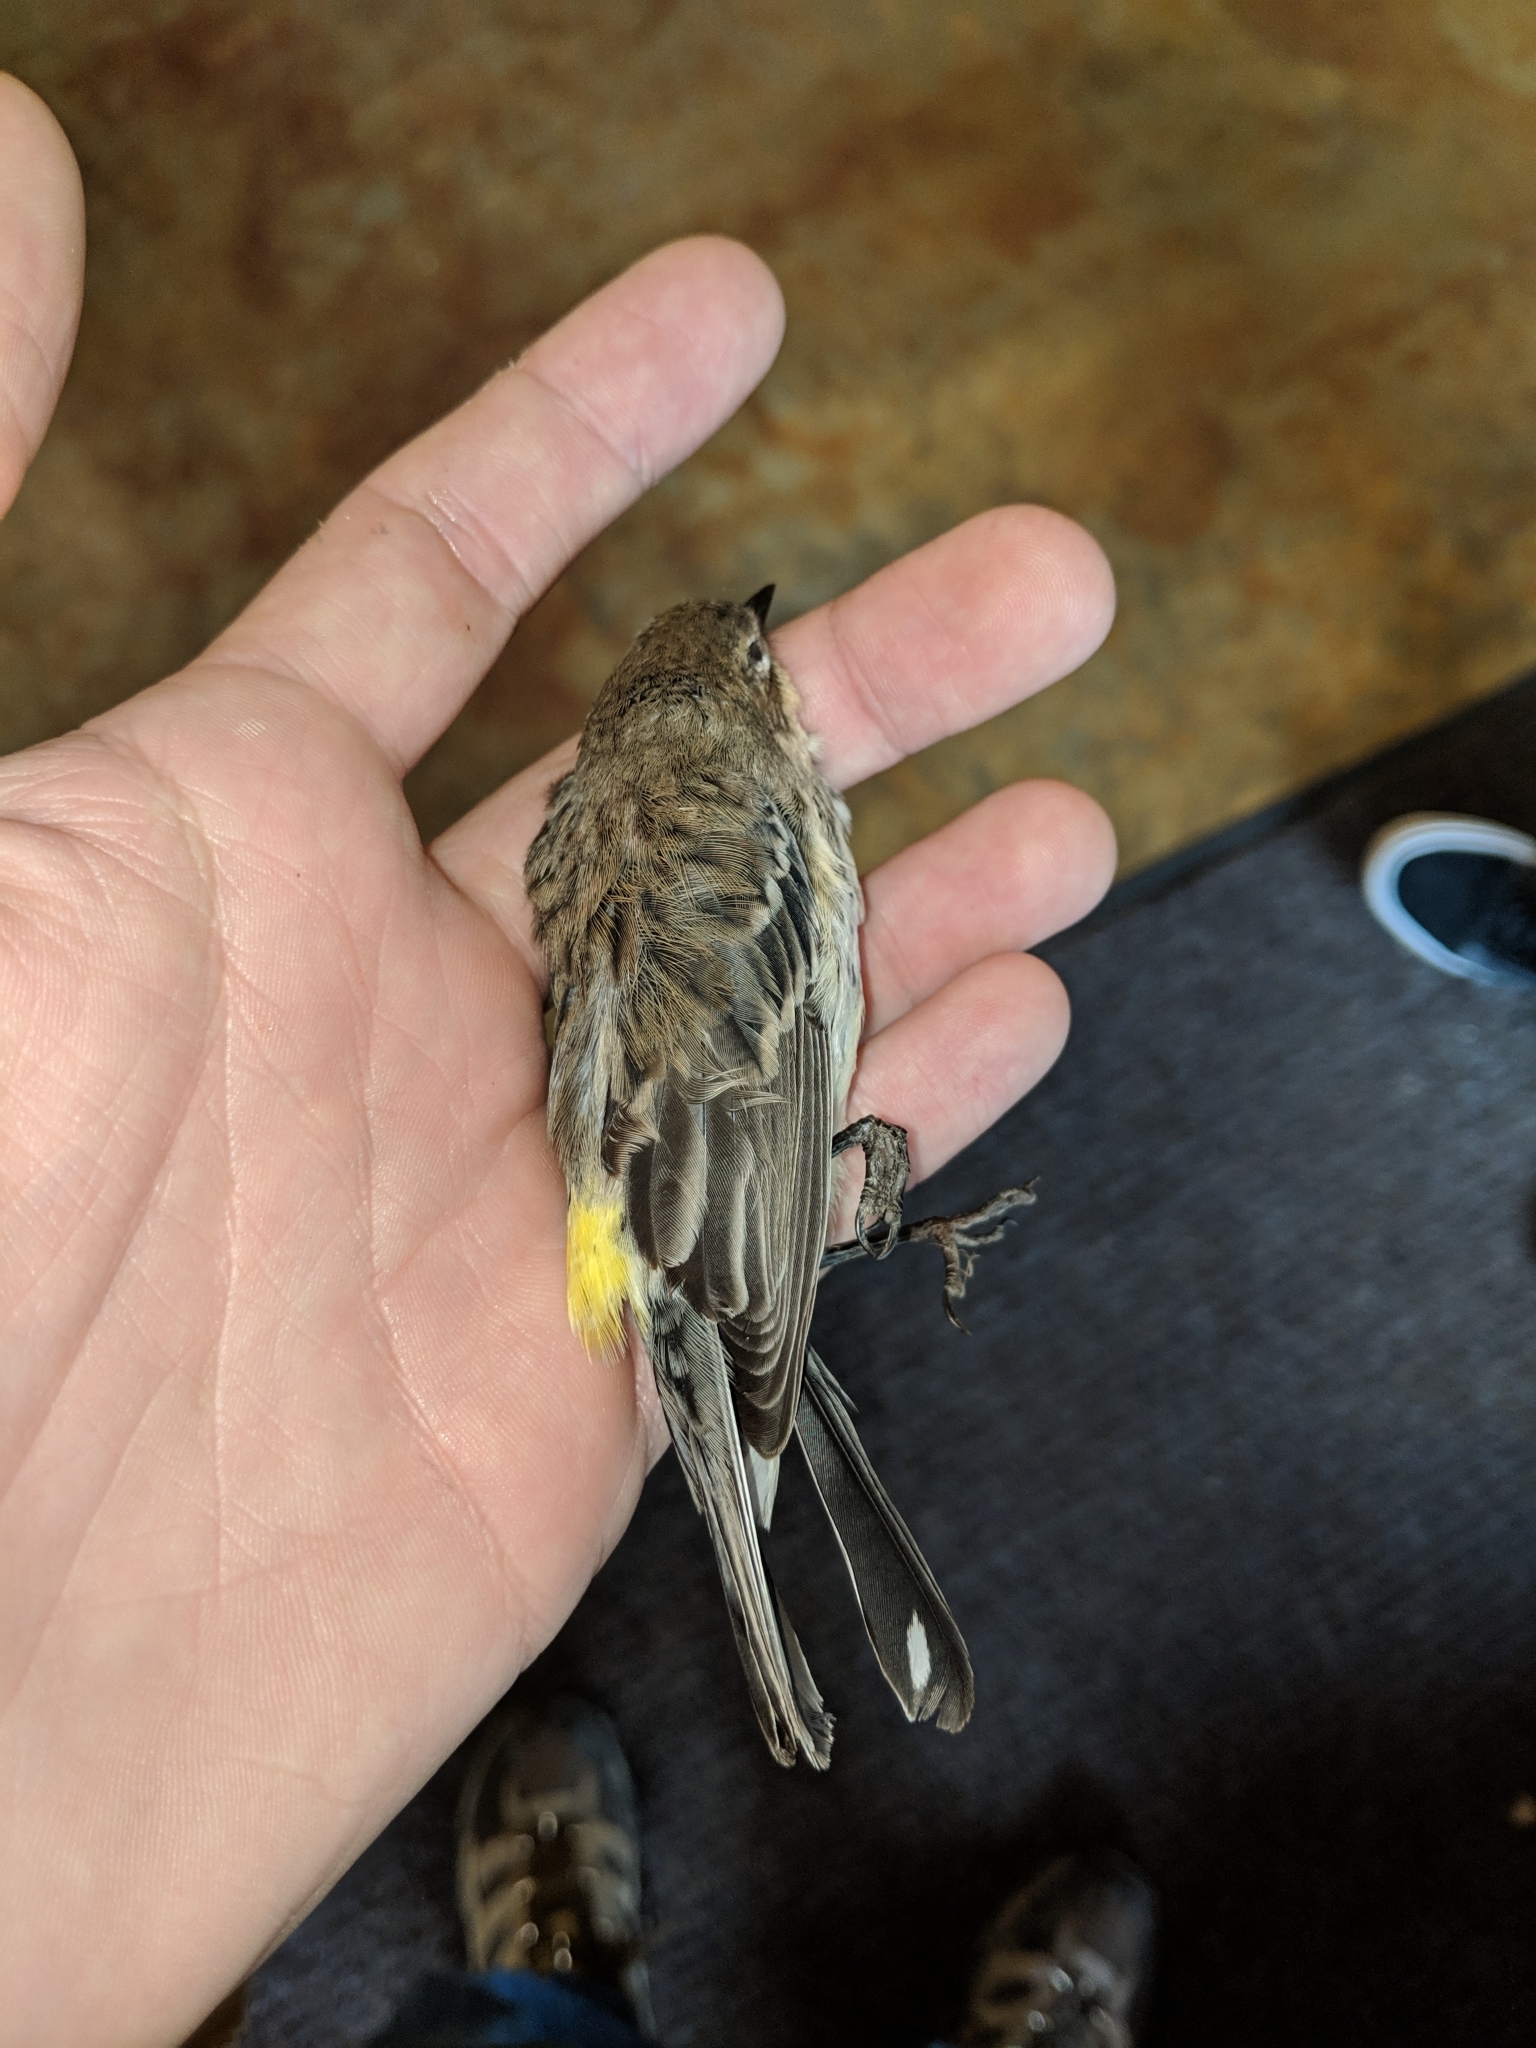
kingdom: Animalia
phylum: Chordata
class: Aves
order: Passeriformes
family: Parulidae
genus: Setophaga
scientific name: Setophaga coronata
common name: Myrtle warbler
